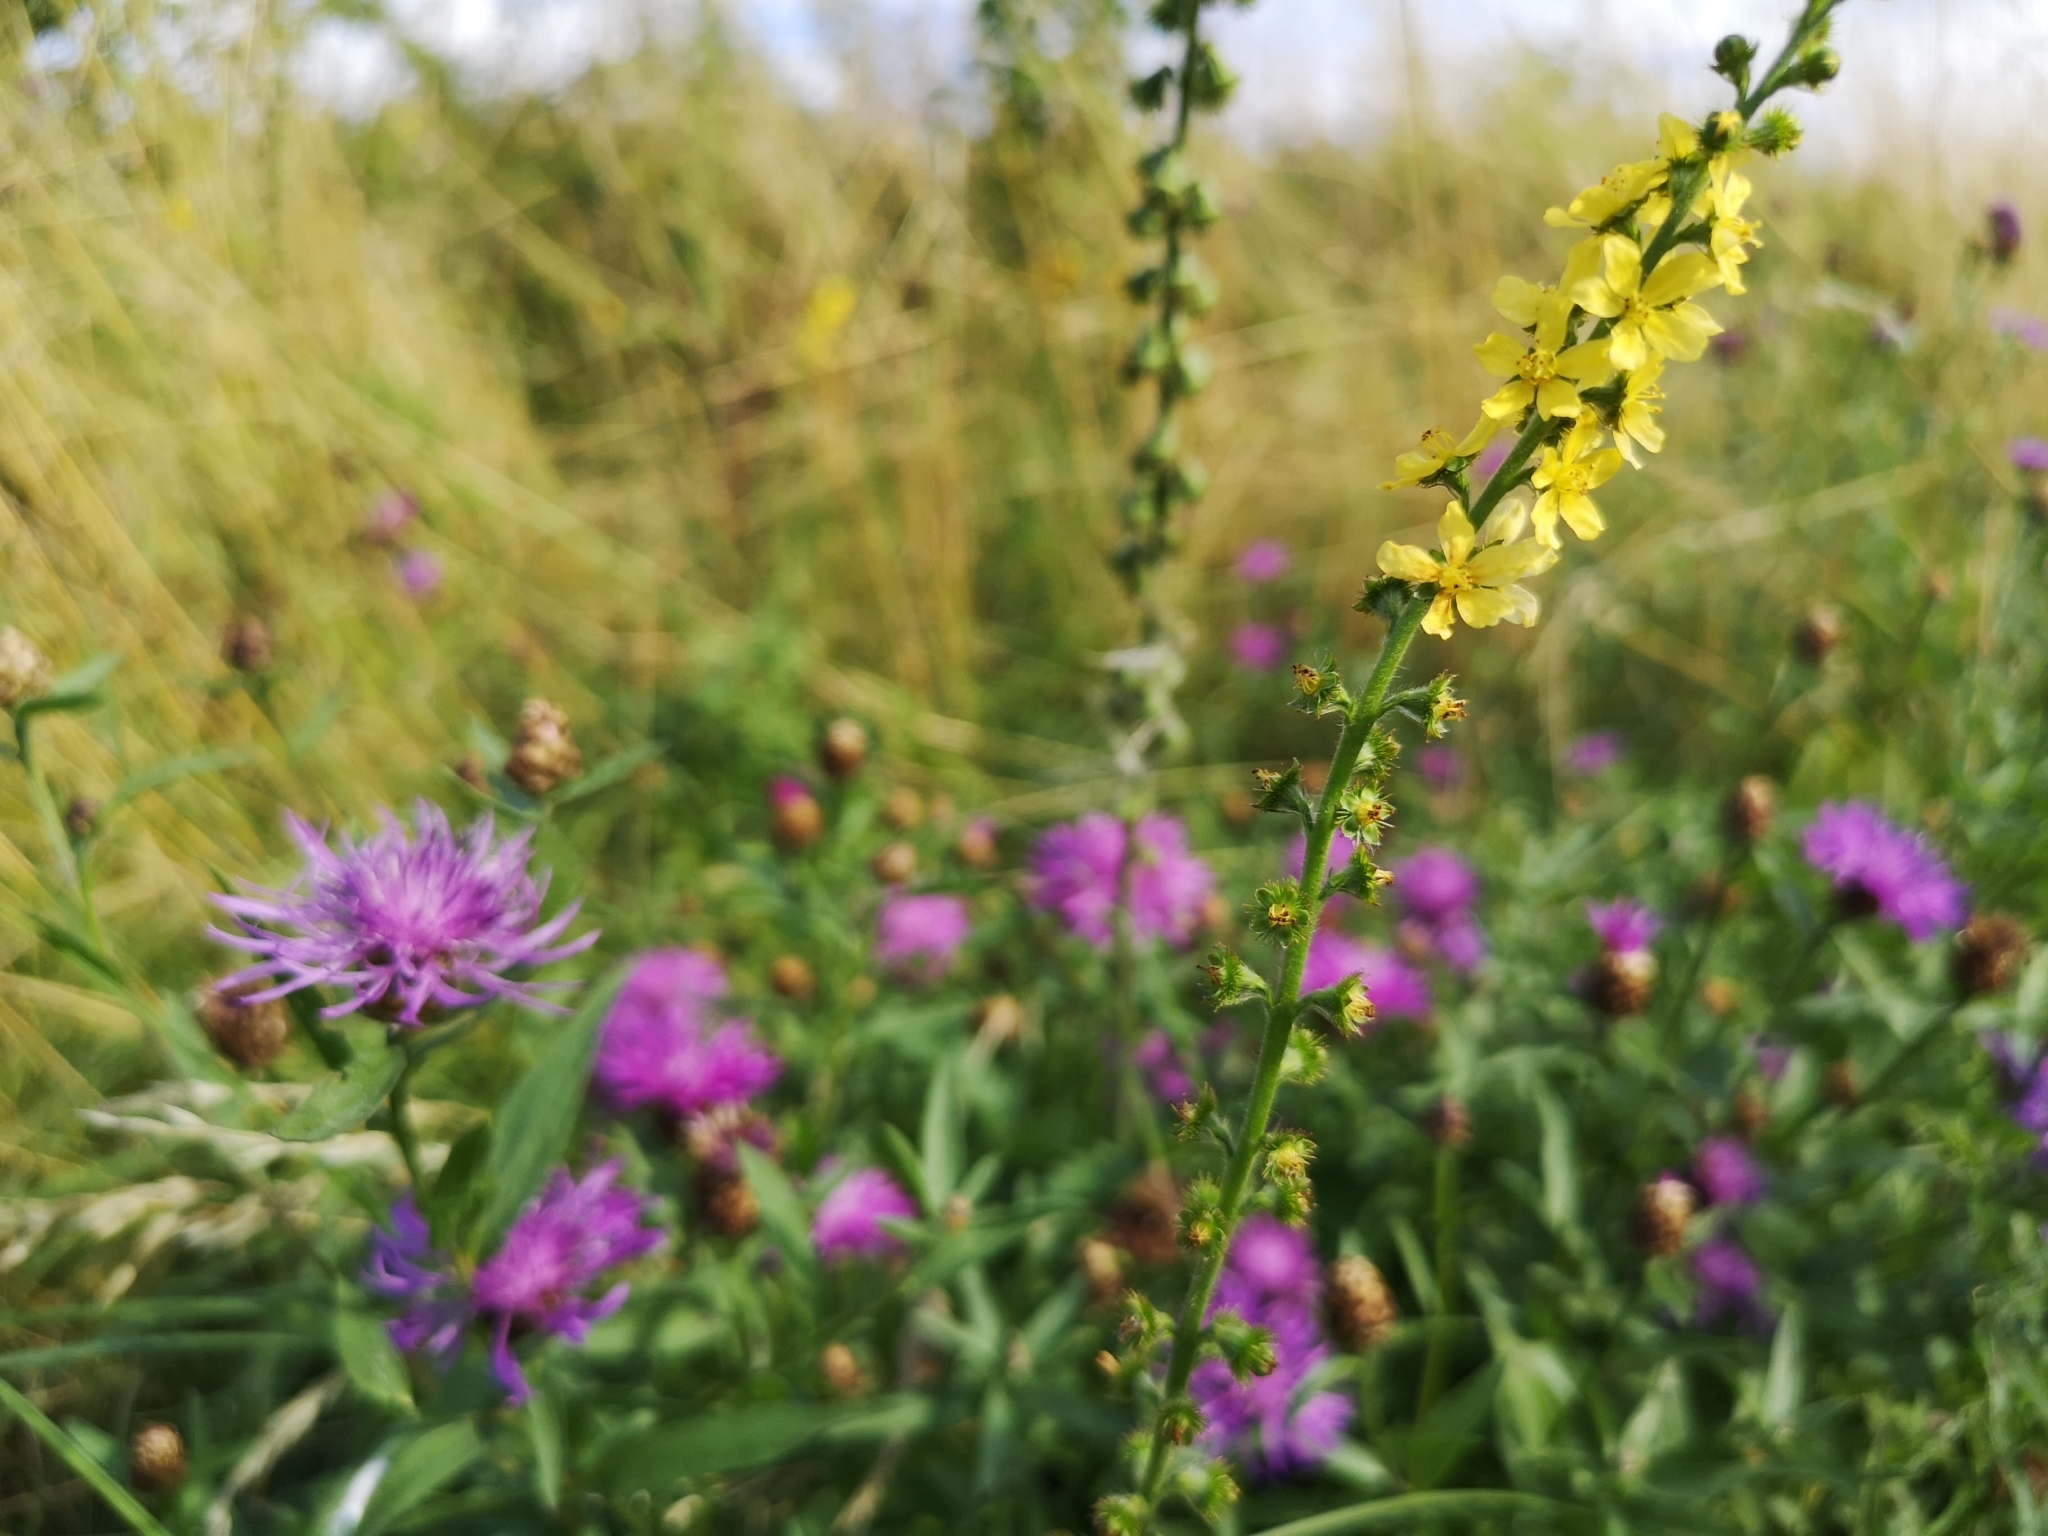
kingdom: Plantae
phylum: Tracheophyta
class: Magnoliopsida
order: Rosales
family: Rosaceae
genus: Agrimonia
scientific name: Agrimonia eupatoria
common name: Agrimony
